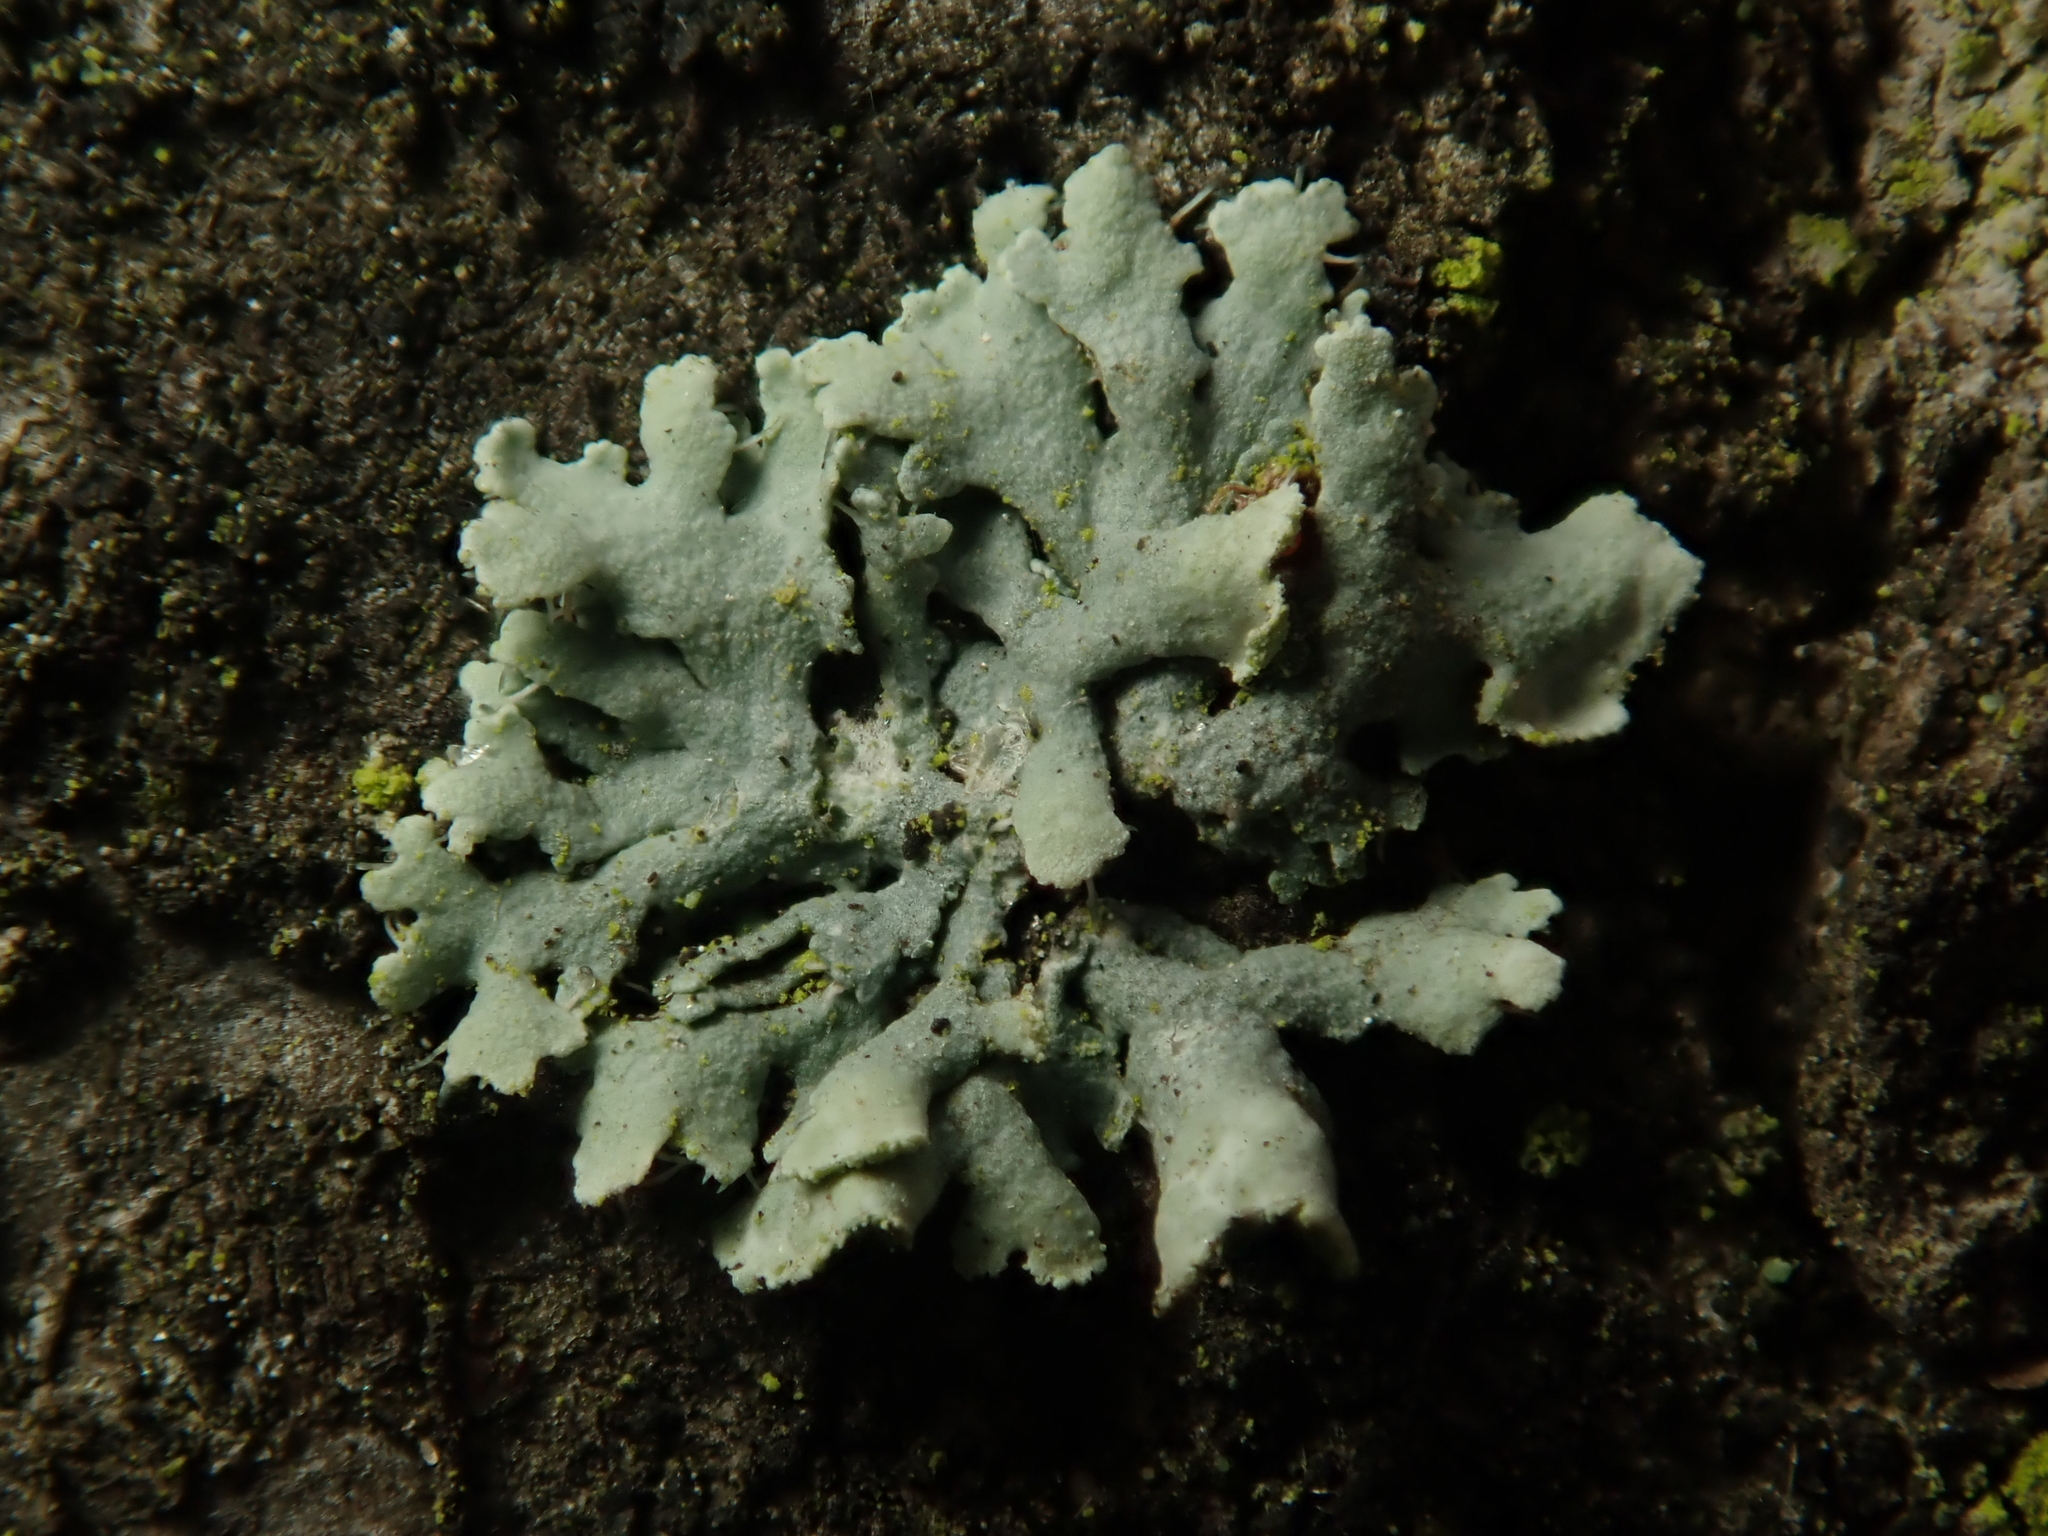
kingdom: Fungi
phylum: Ascomycota
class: Lecanoromycetes
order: Caliciales
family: Physciaceae
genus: Physcia
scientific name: Physcia adscendens
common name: Hooded rosette lichen
